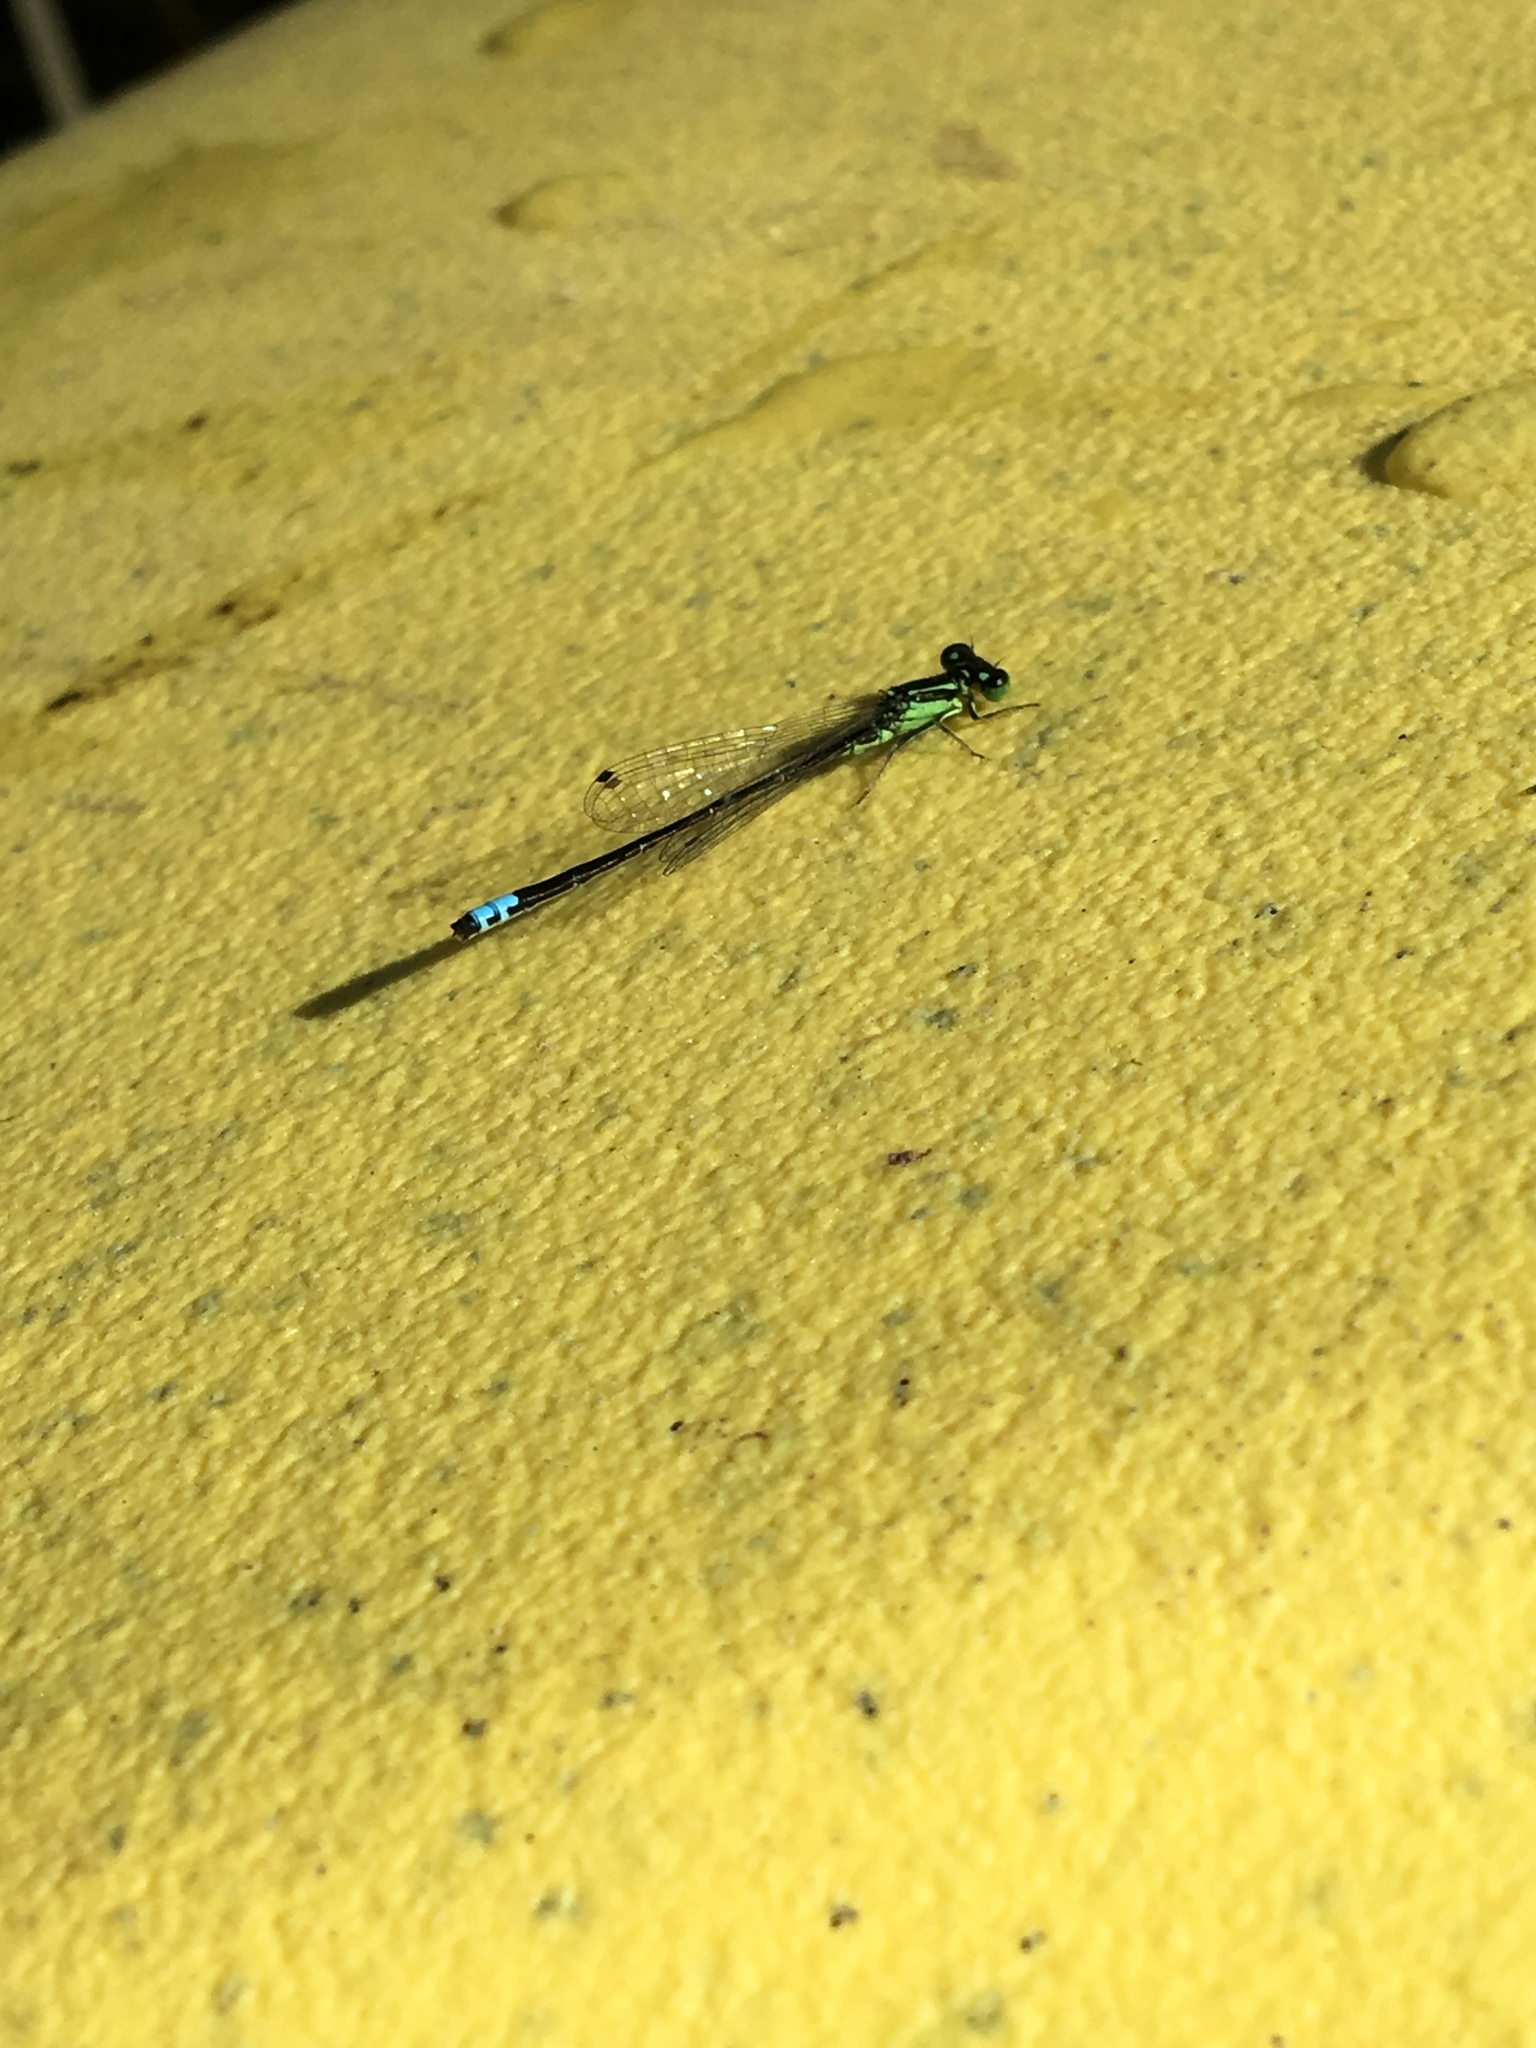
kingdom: Animalia
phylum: Arthropoda
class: Insecta
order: Odonata
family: Coenagrionidae
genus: Ischnura
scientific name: Ischnura verticalis
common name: Eastern forktail
